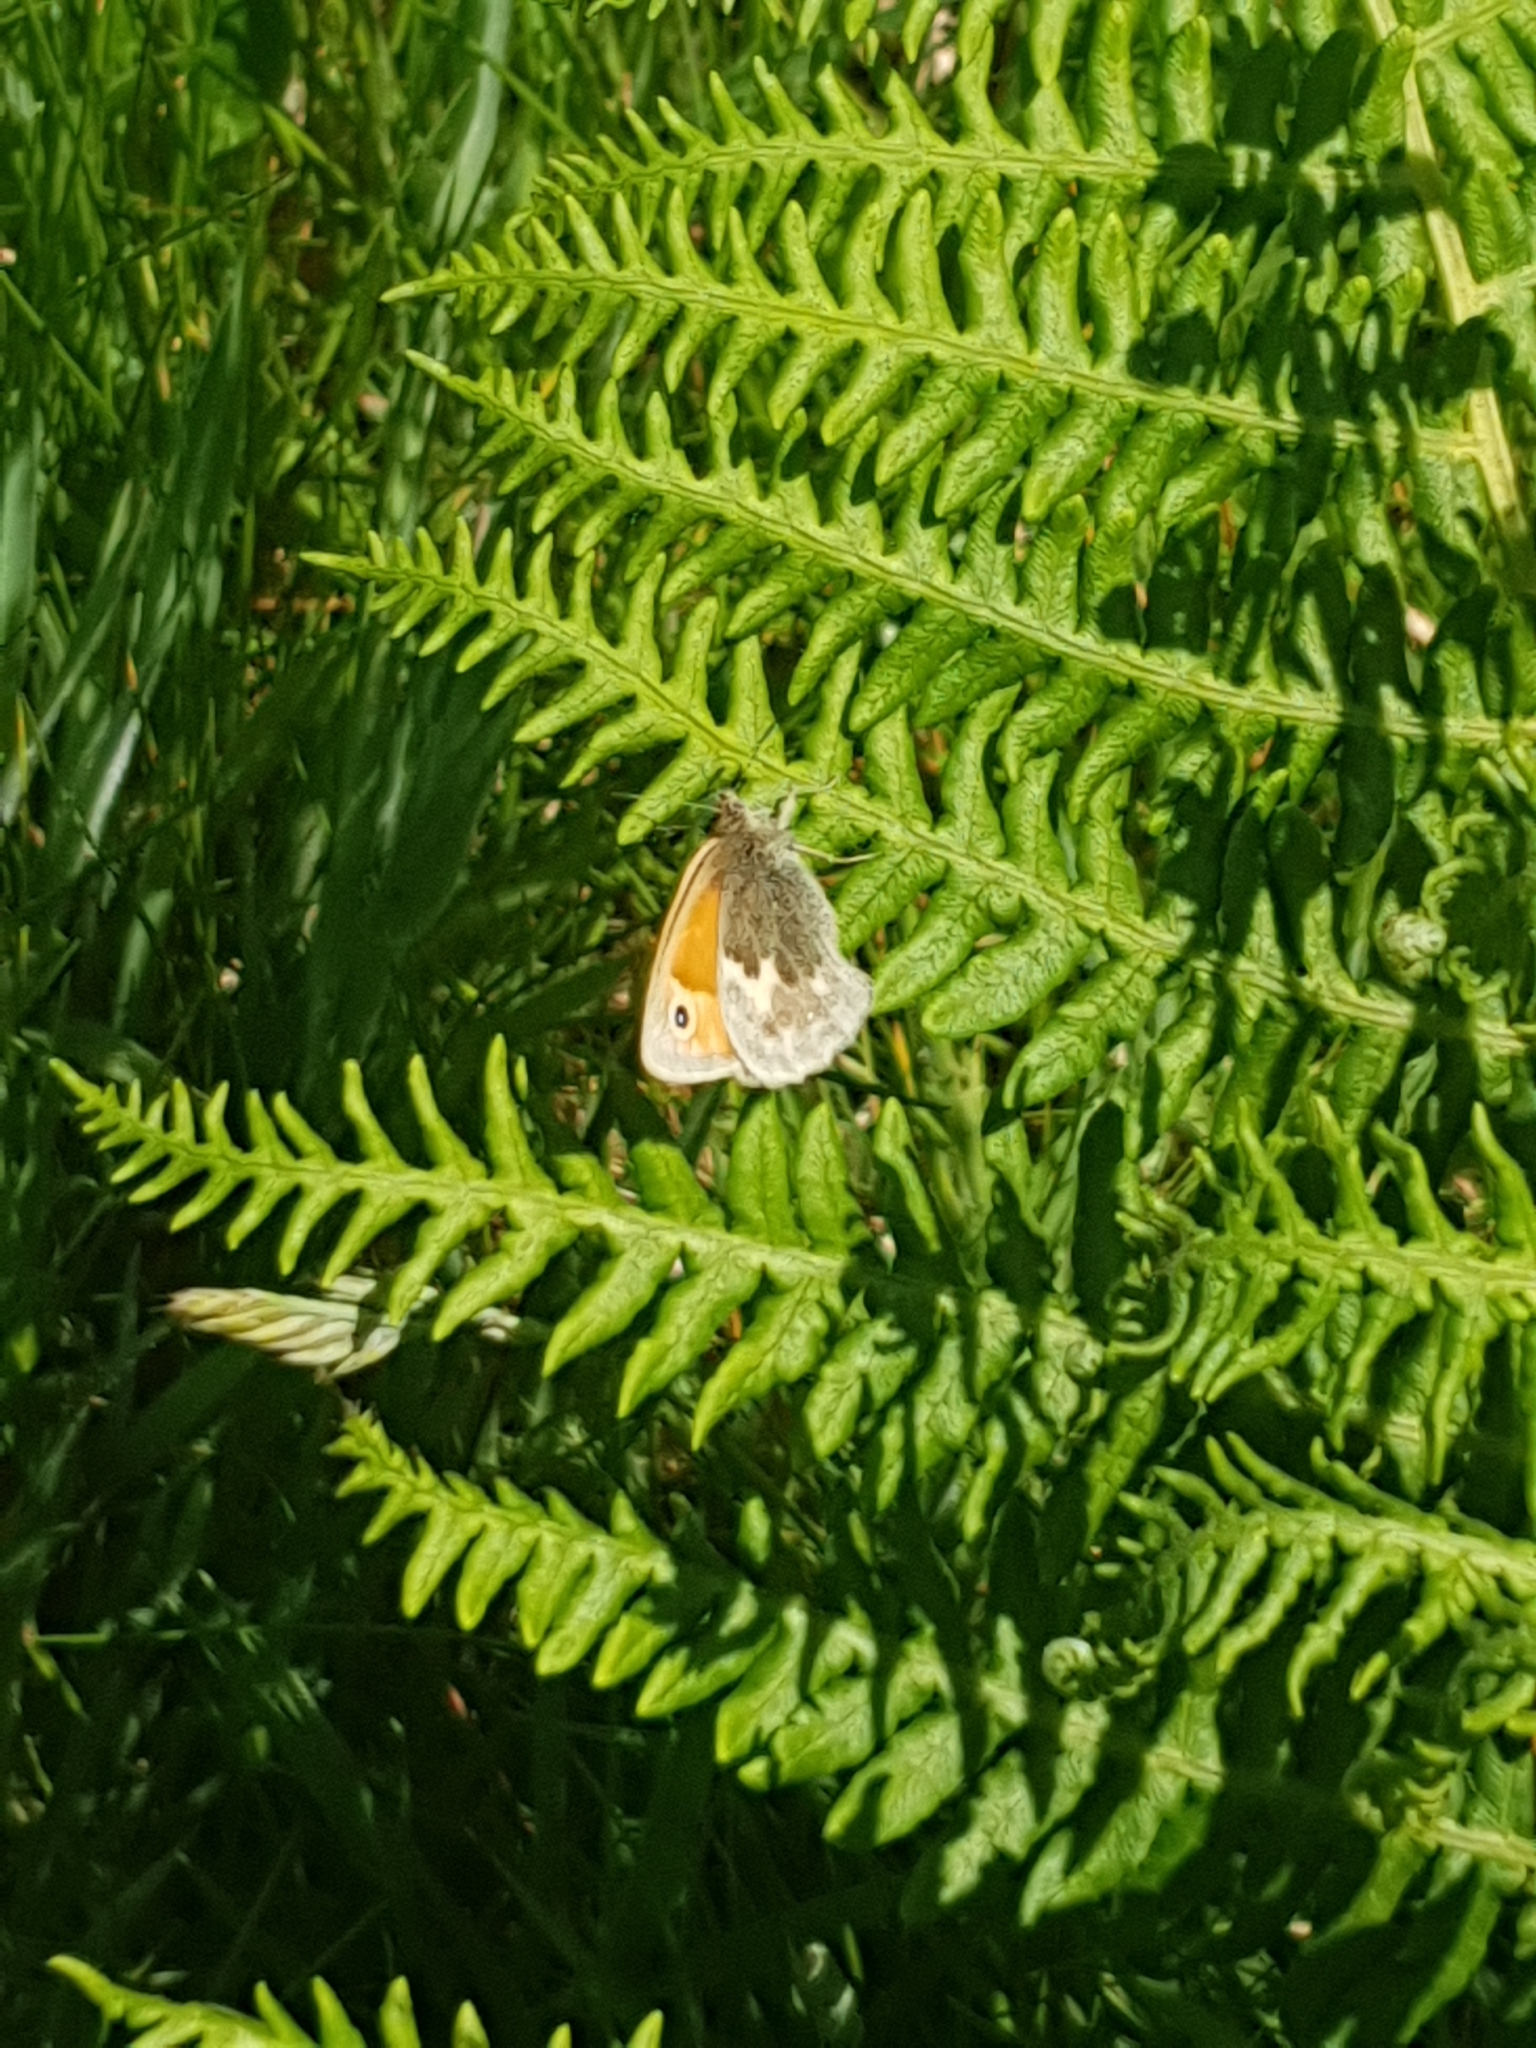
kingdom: Animalia
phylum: Arthropoda
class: Insecta
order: Lepidoptera
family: Nymphalidae
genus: Coenonympha
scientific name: Coenonympha pamphilus
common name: Small heath
